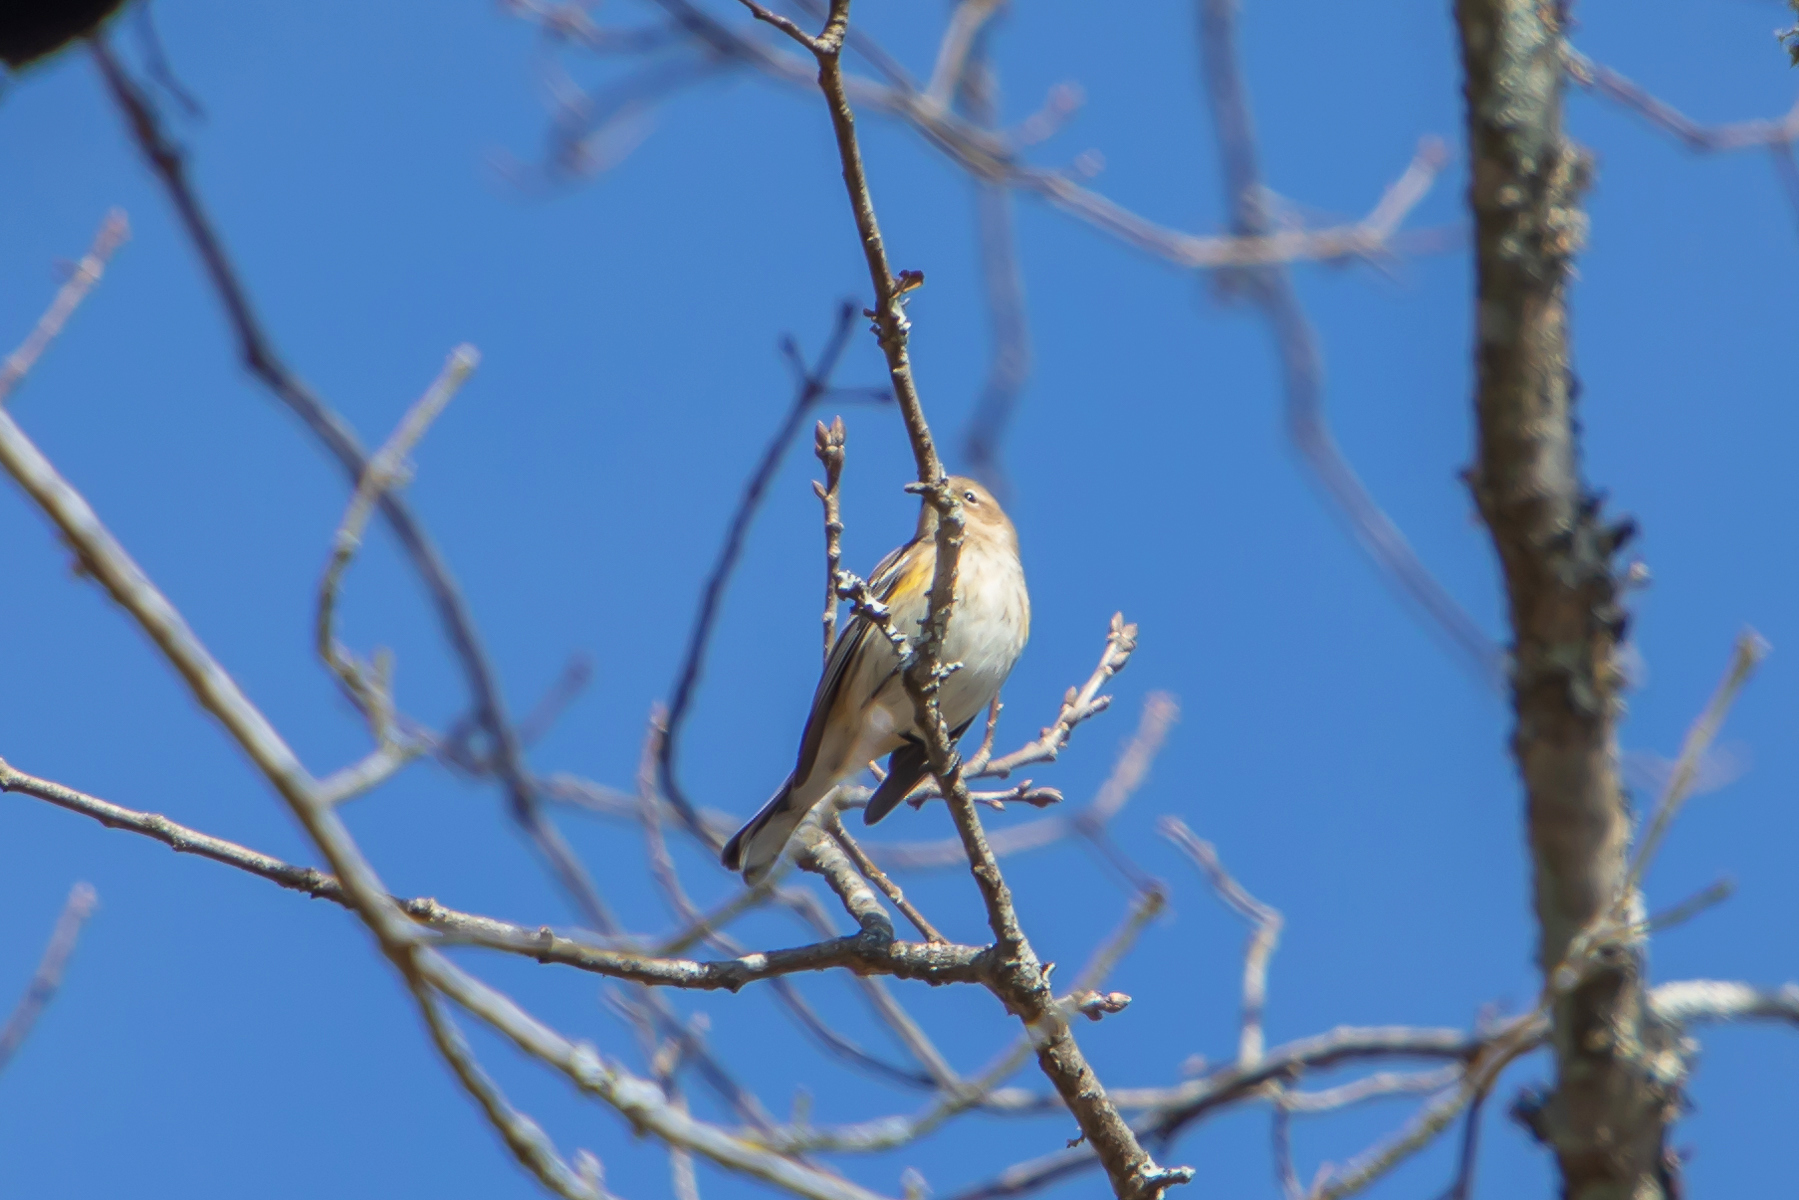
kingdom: Animalia
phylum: Chordata
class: Aves
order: Passeriformes
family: Parulidae
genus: Setophaga
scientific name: Setophaga coronata
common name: Myrtle warbler
